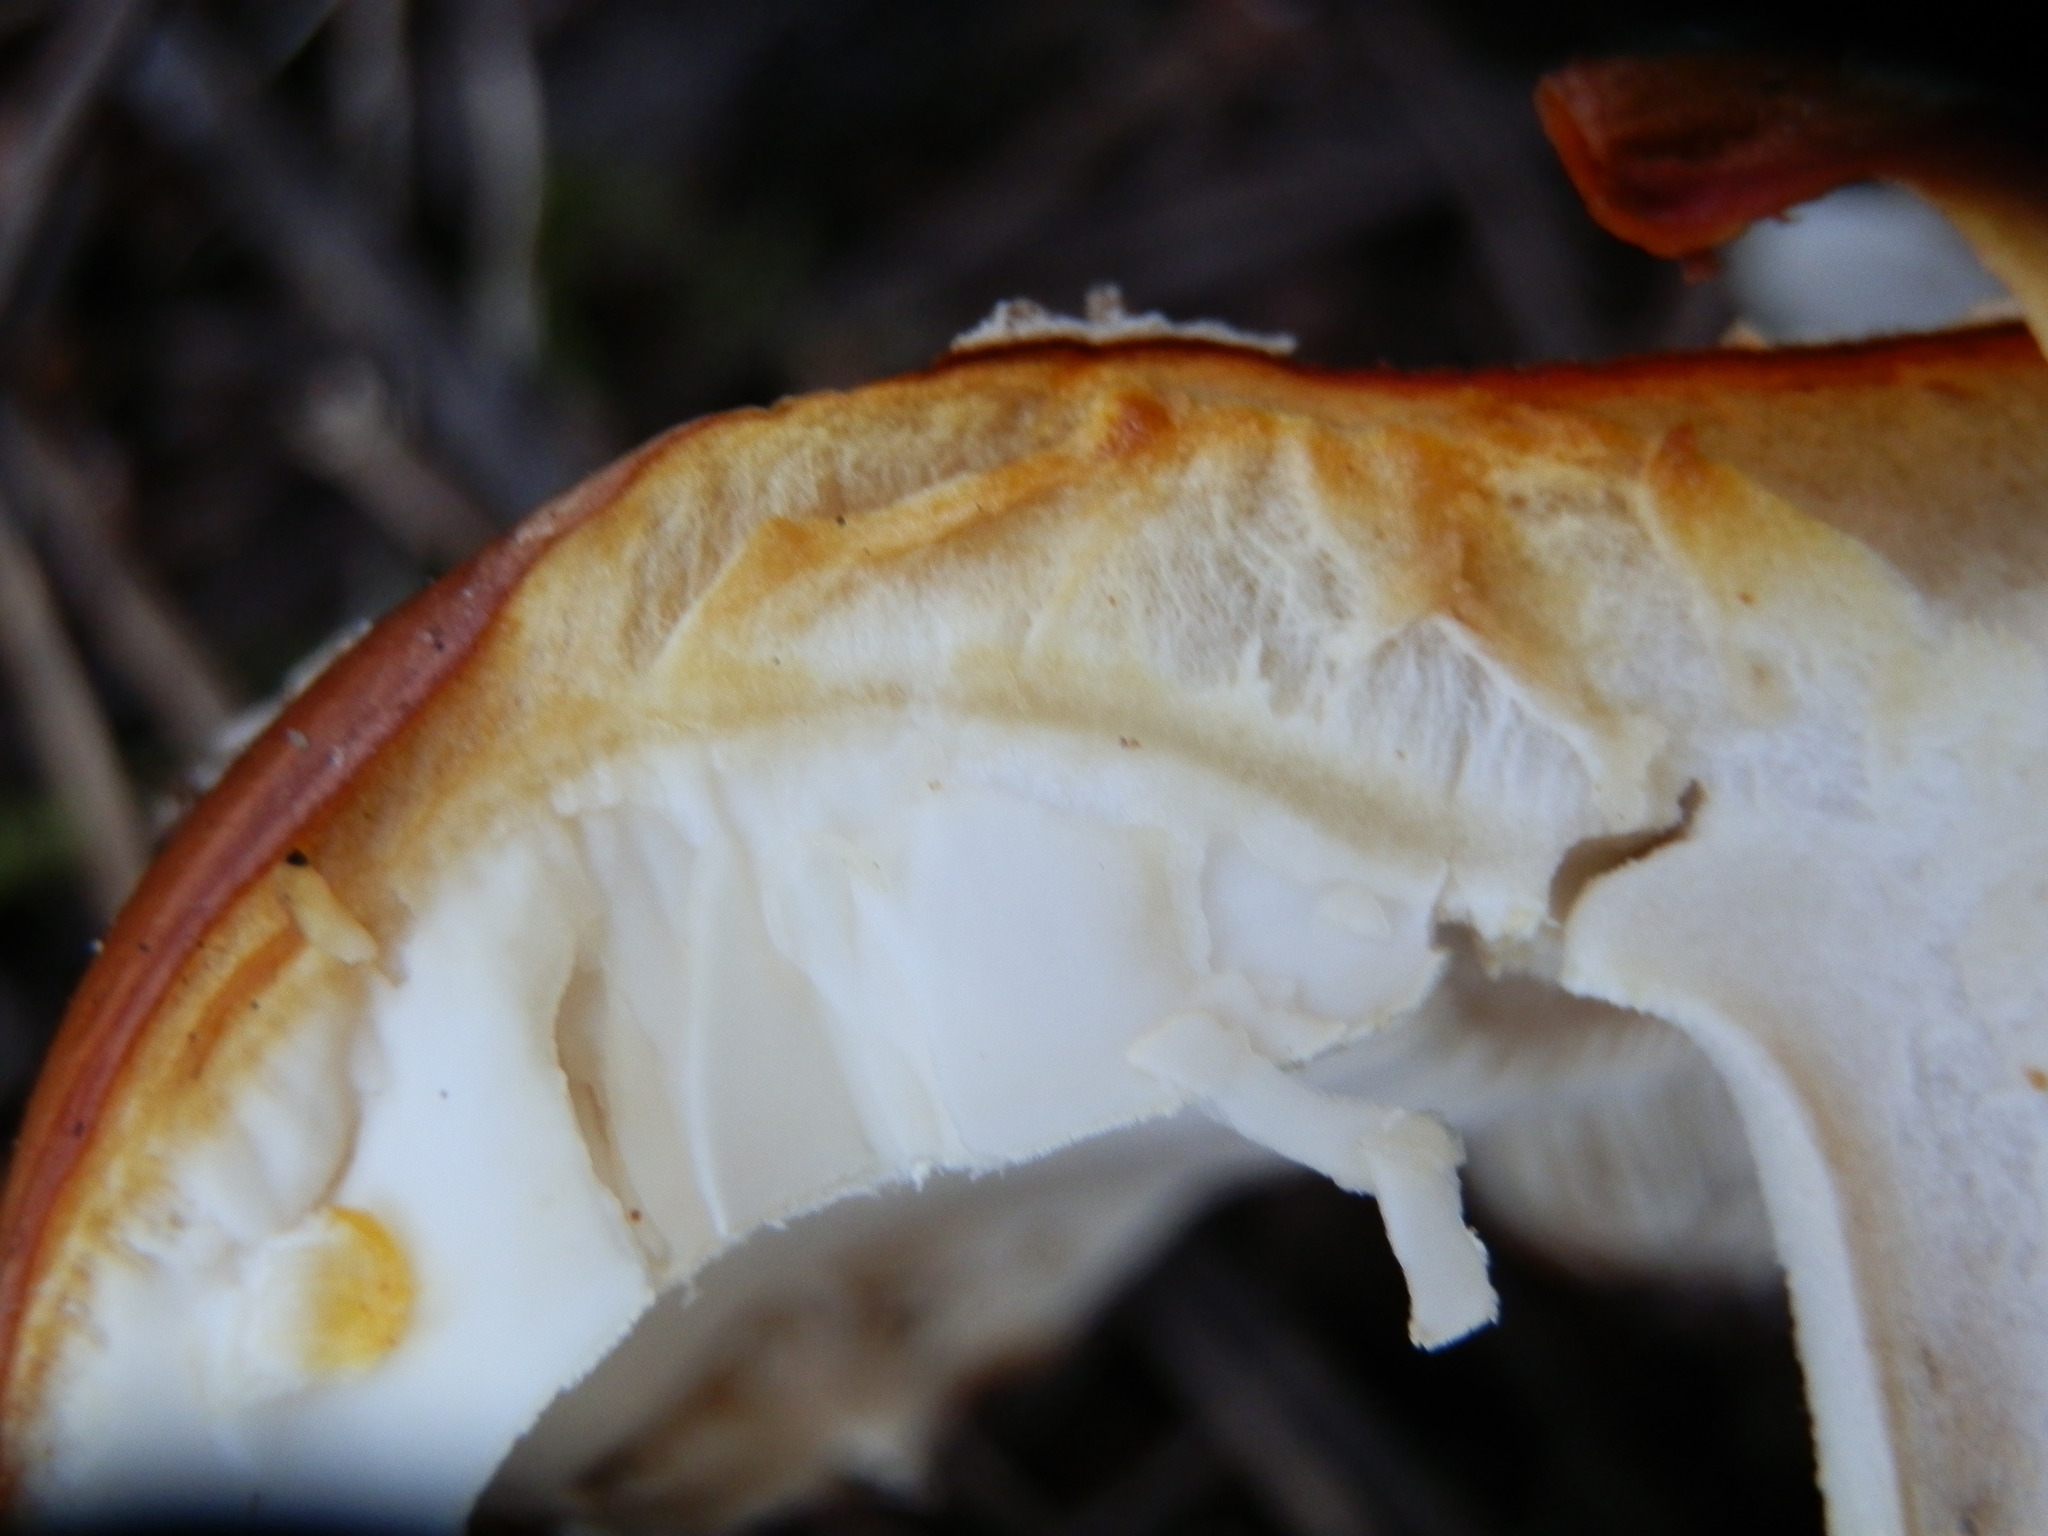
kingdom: Fungi
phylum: Basidiomycota
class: Agaricomycetes
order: Agaricales
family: Amanitaceae
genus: Amanita
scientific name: Amanita muscaria
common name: Fly agaric
